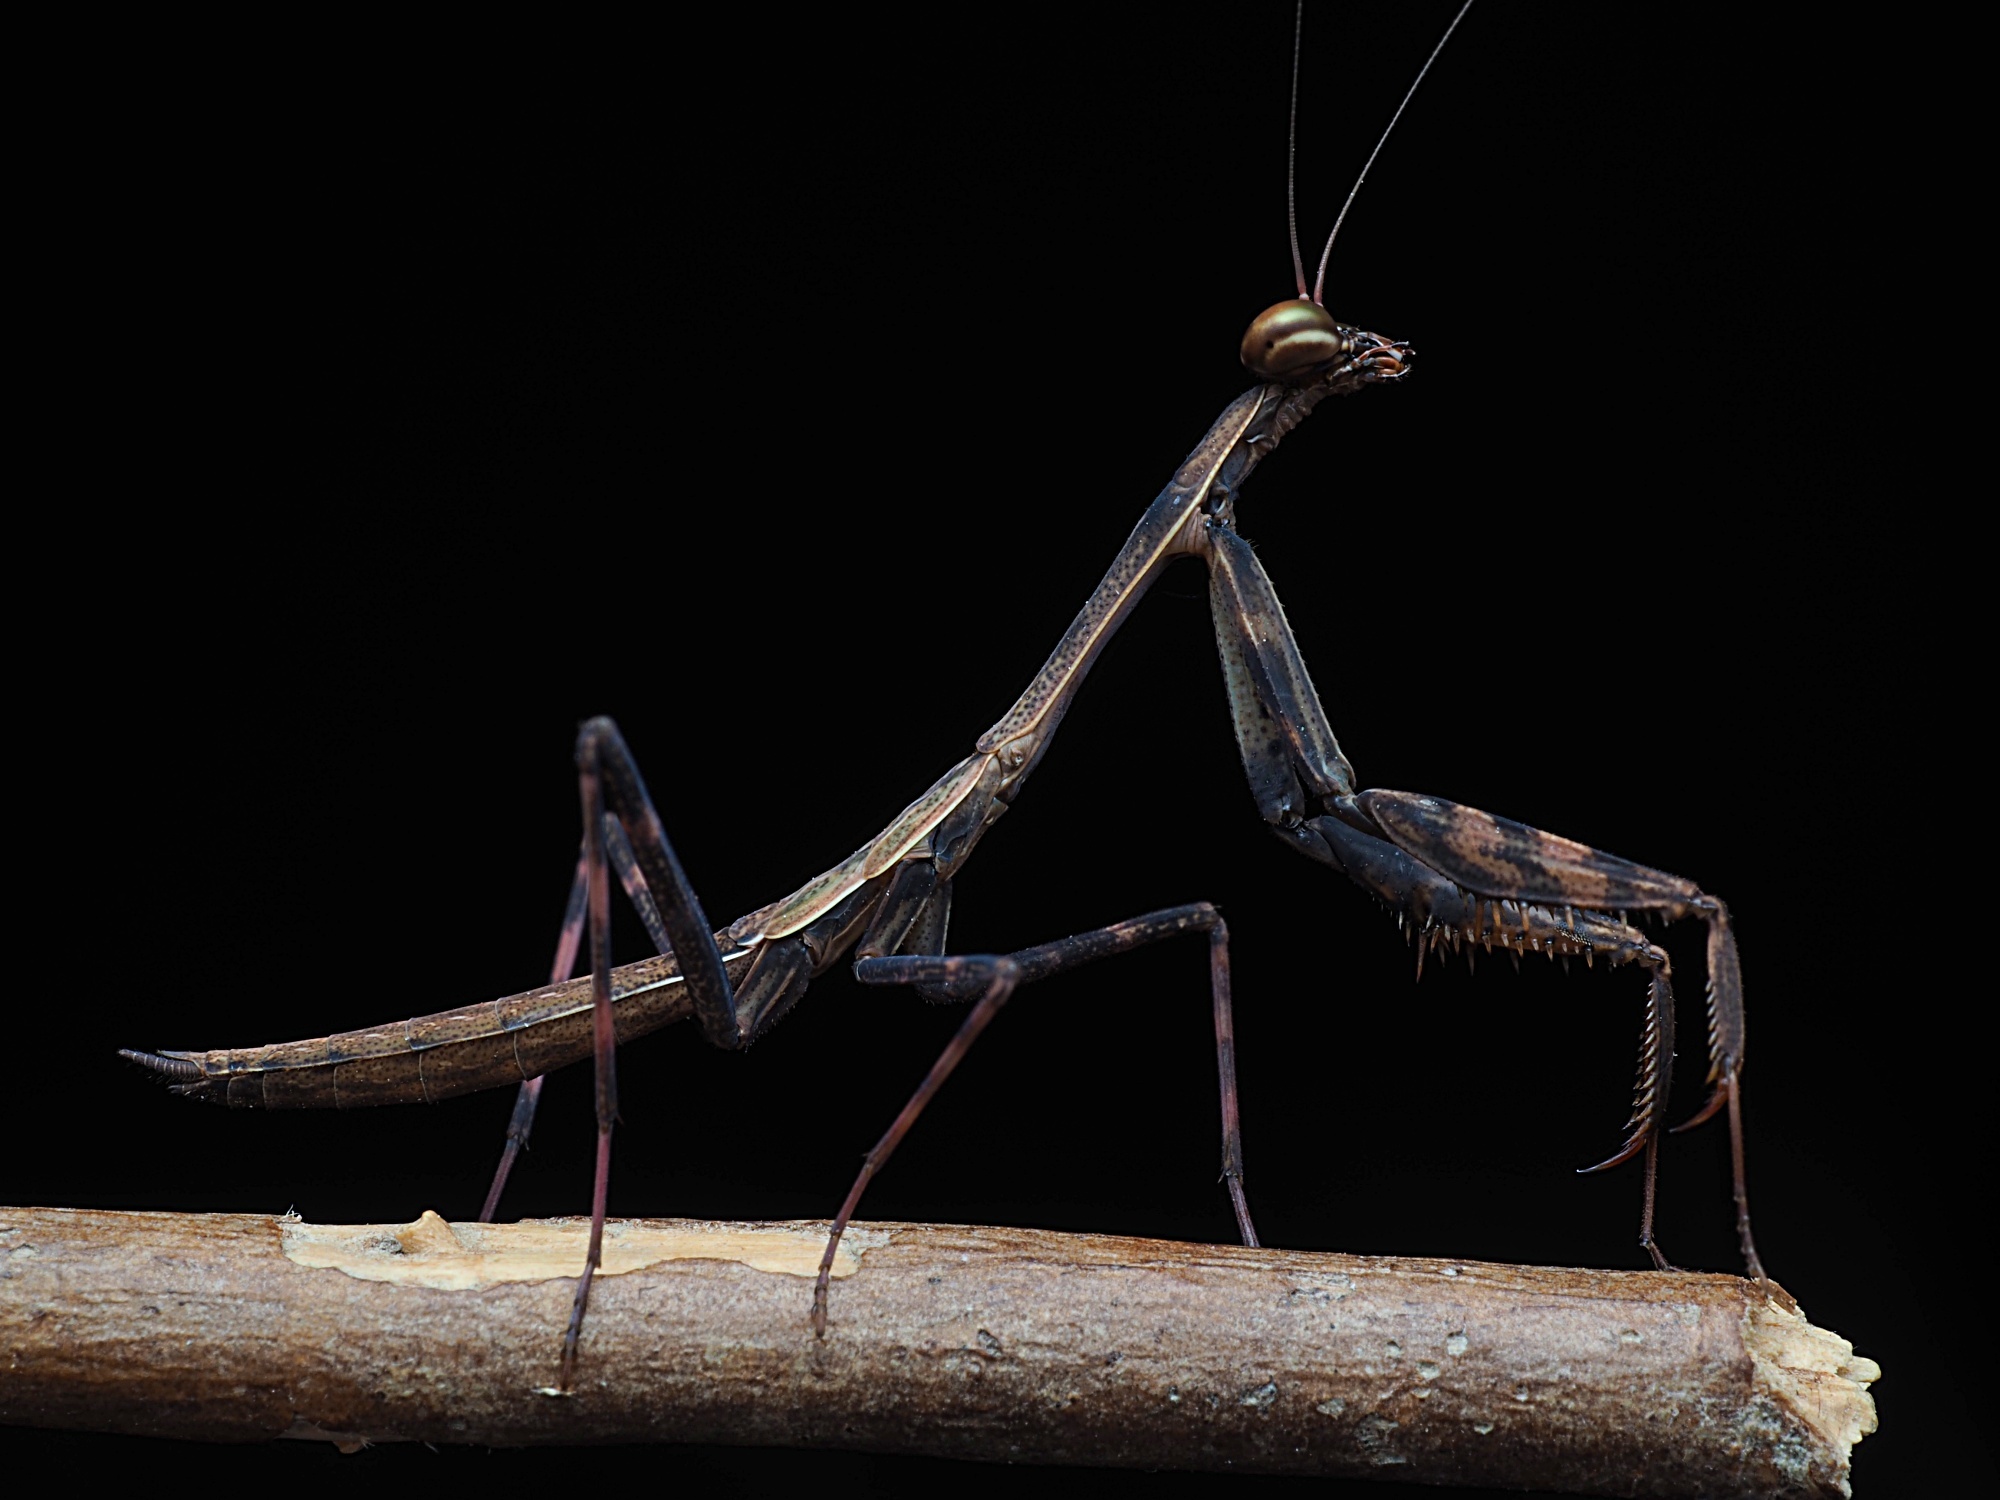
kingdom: Animalia
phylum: Arthropoda
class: Insecta
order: Mantodea
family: Miomantidae
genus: Miomantis
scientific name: Miomantis caffra
